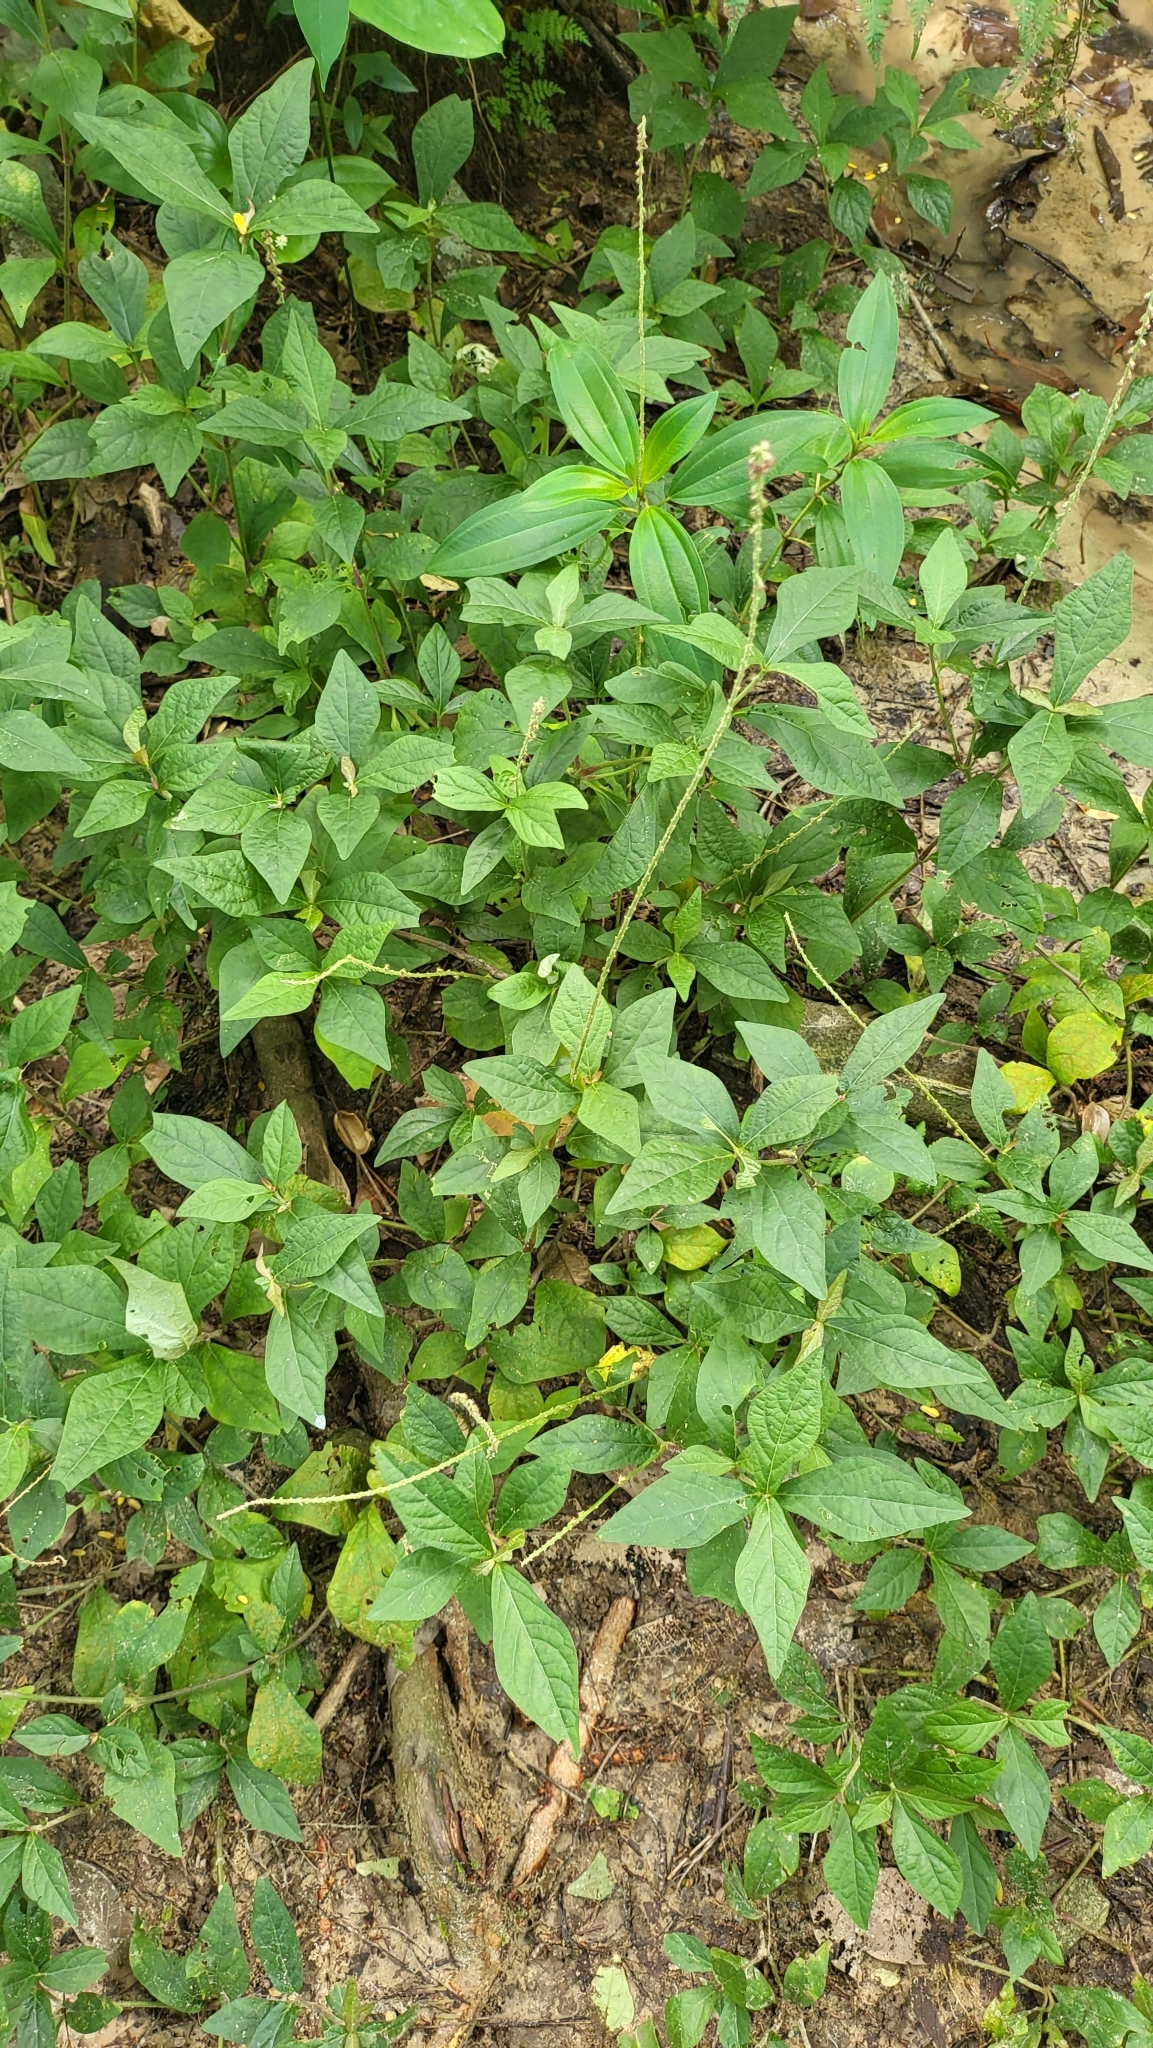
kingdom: Plantae
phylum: Tracheophyta
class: Magnoliopsida
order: Caryophyllales
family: Amaranthaceae
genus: Cyathula
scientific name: Cyathula prostrata
